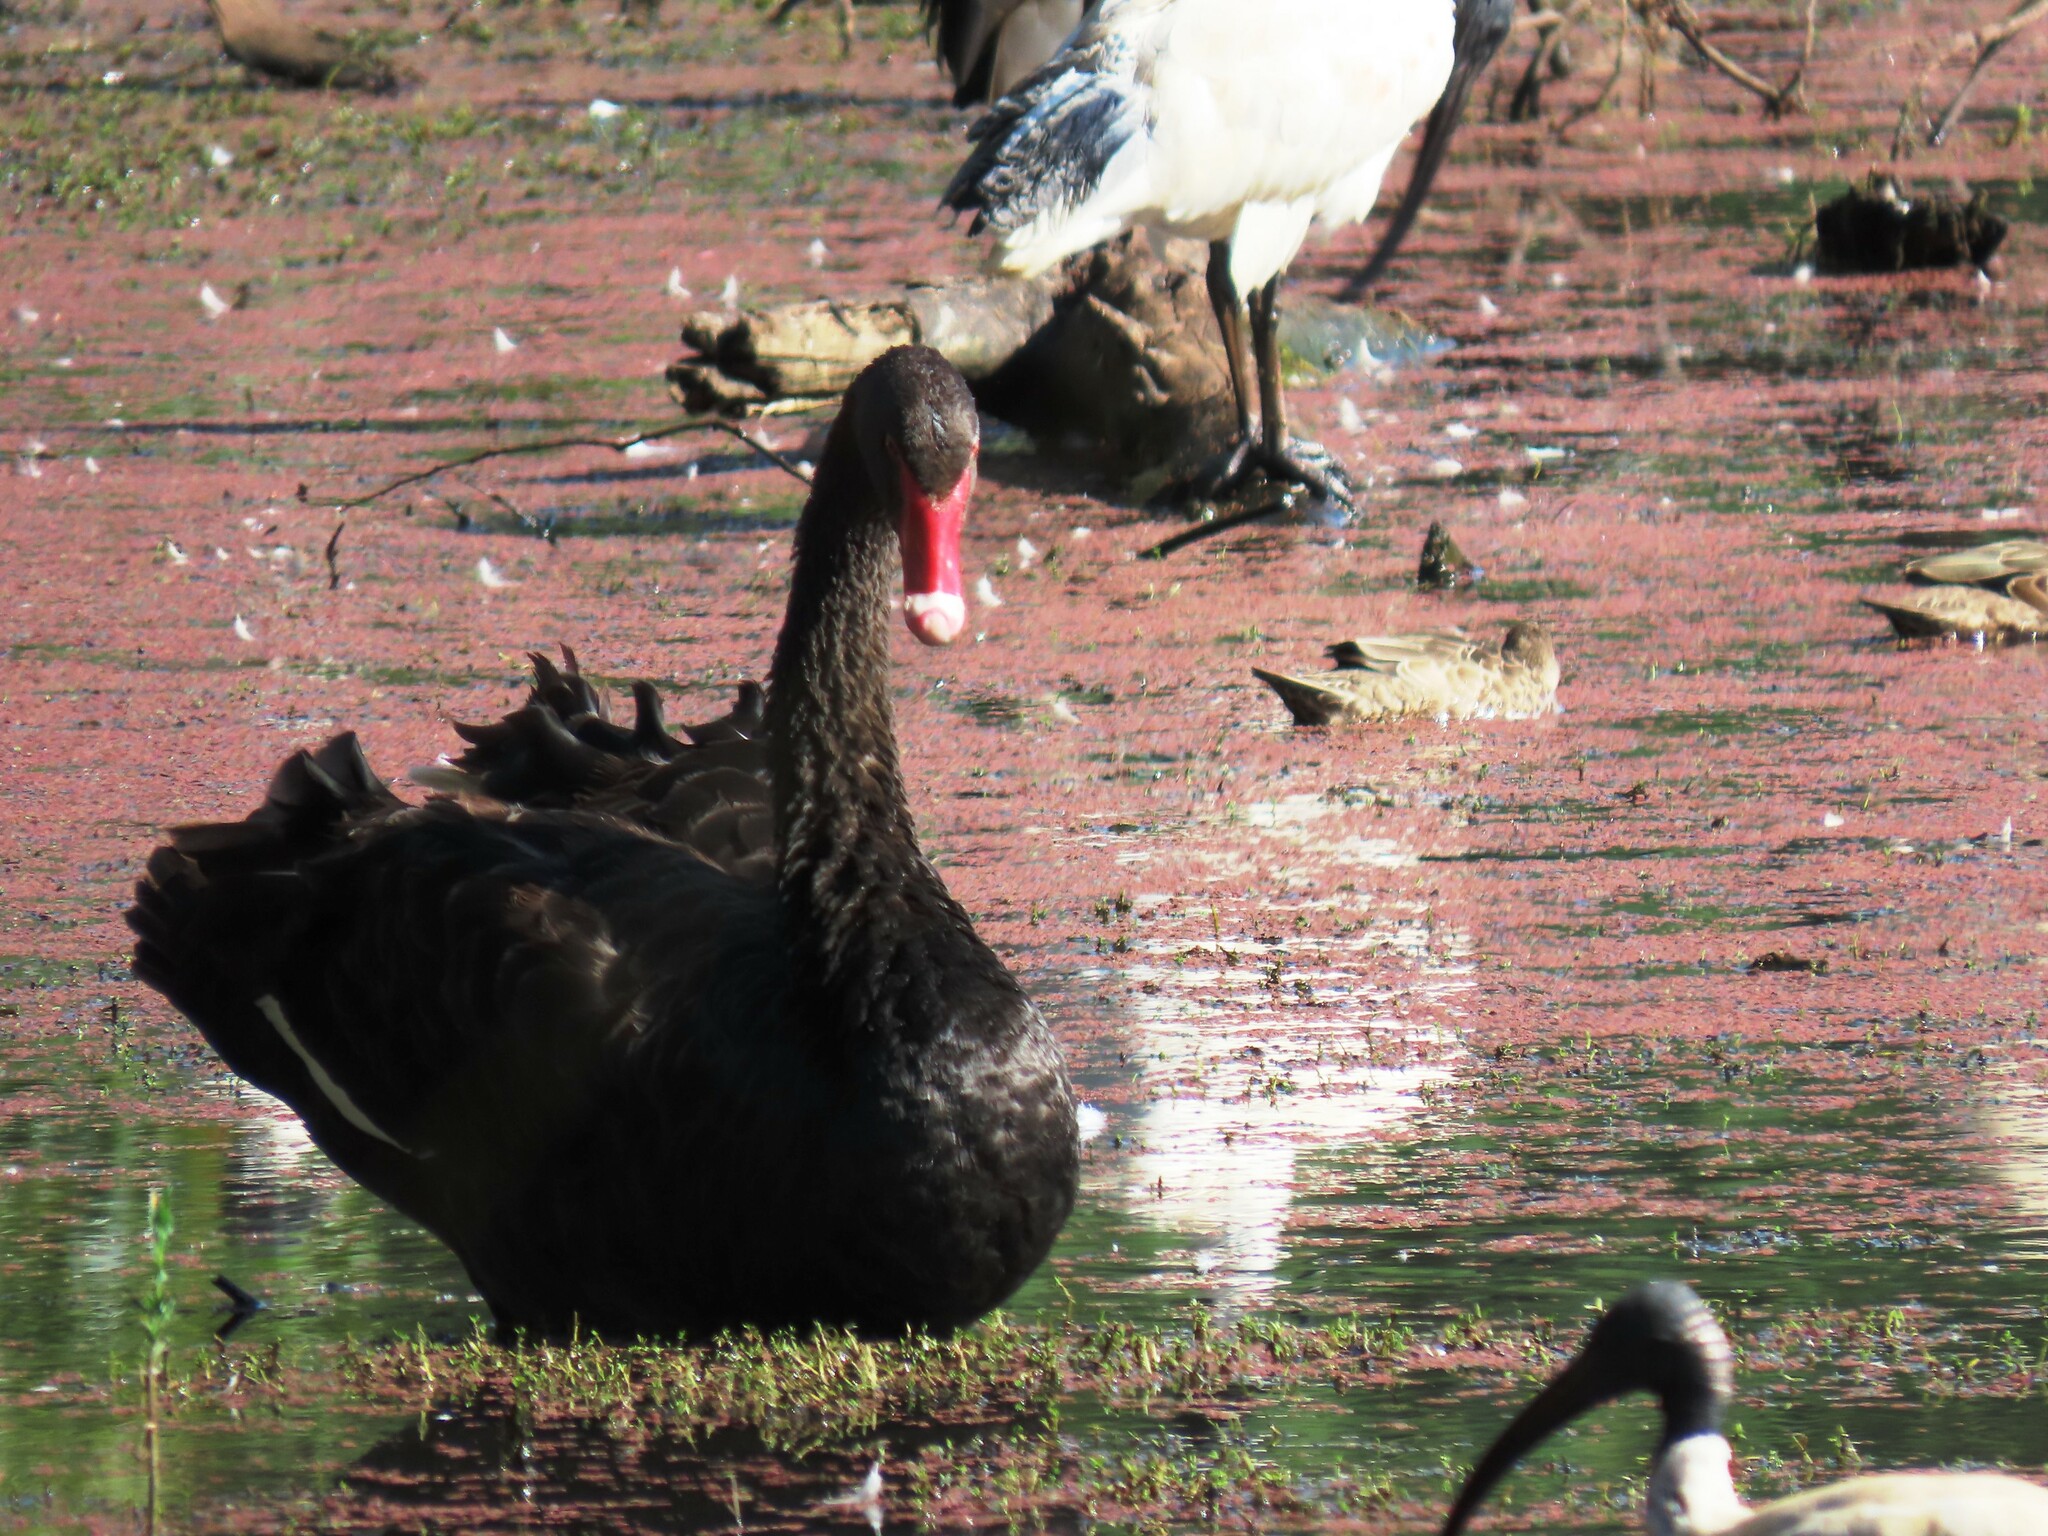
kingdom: Animalia
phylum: Chordata
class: Aves
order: Anseriformes
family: Anatidae
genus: Cygnus
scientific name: Cygnus atratus
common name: Black swan
